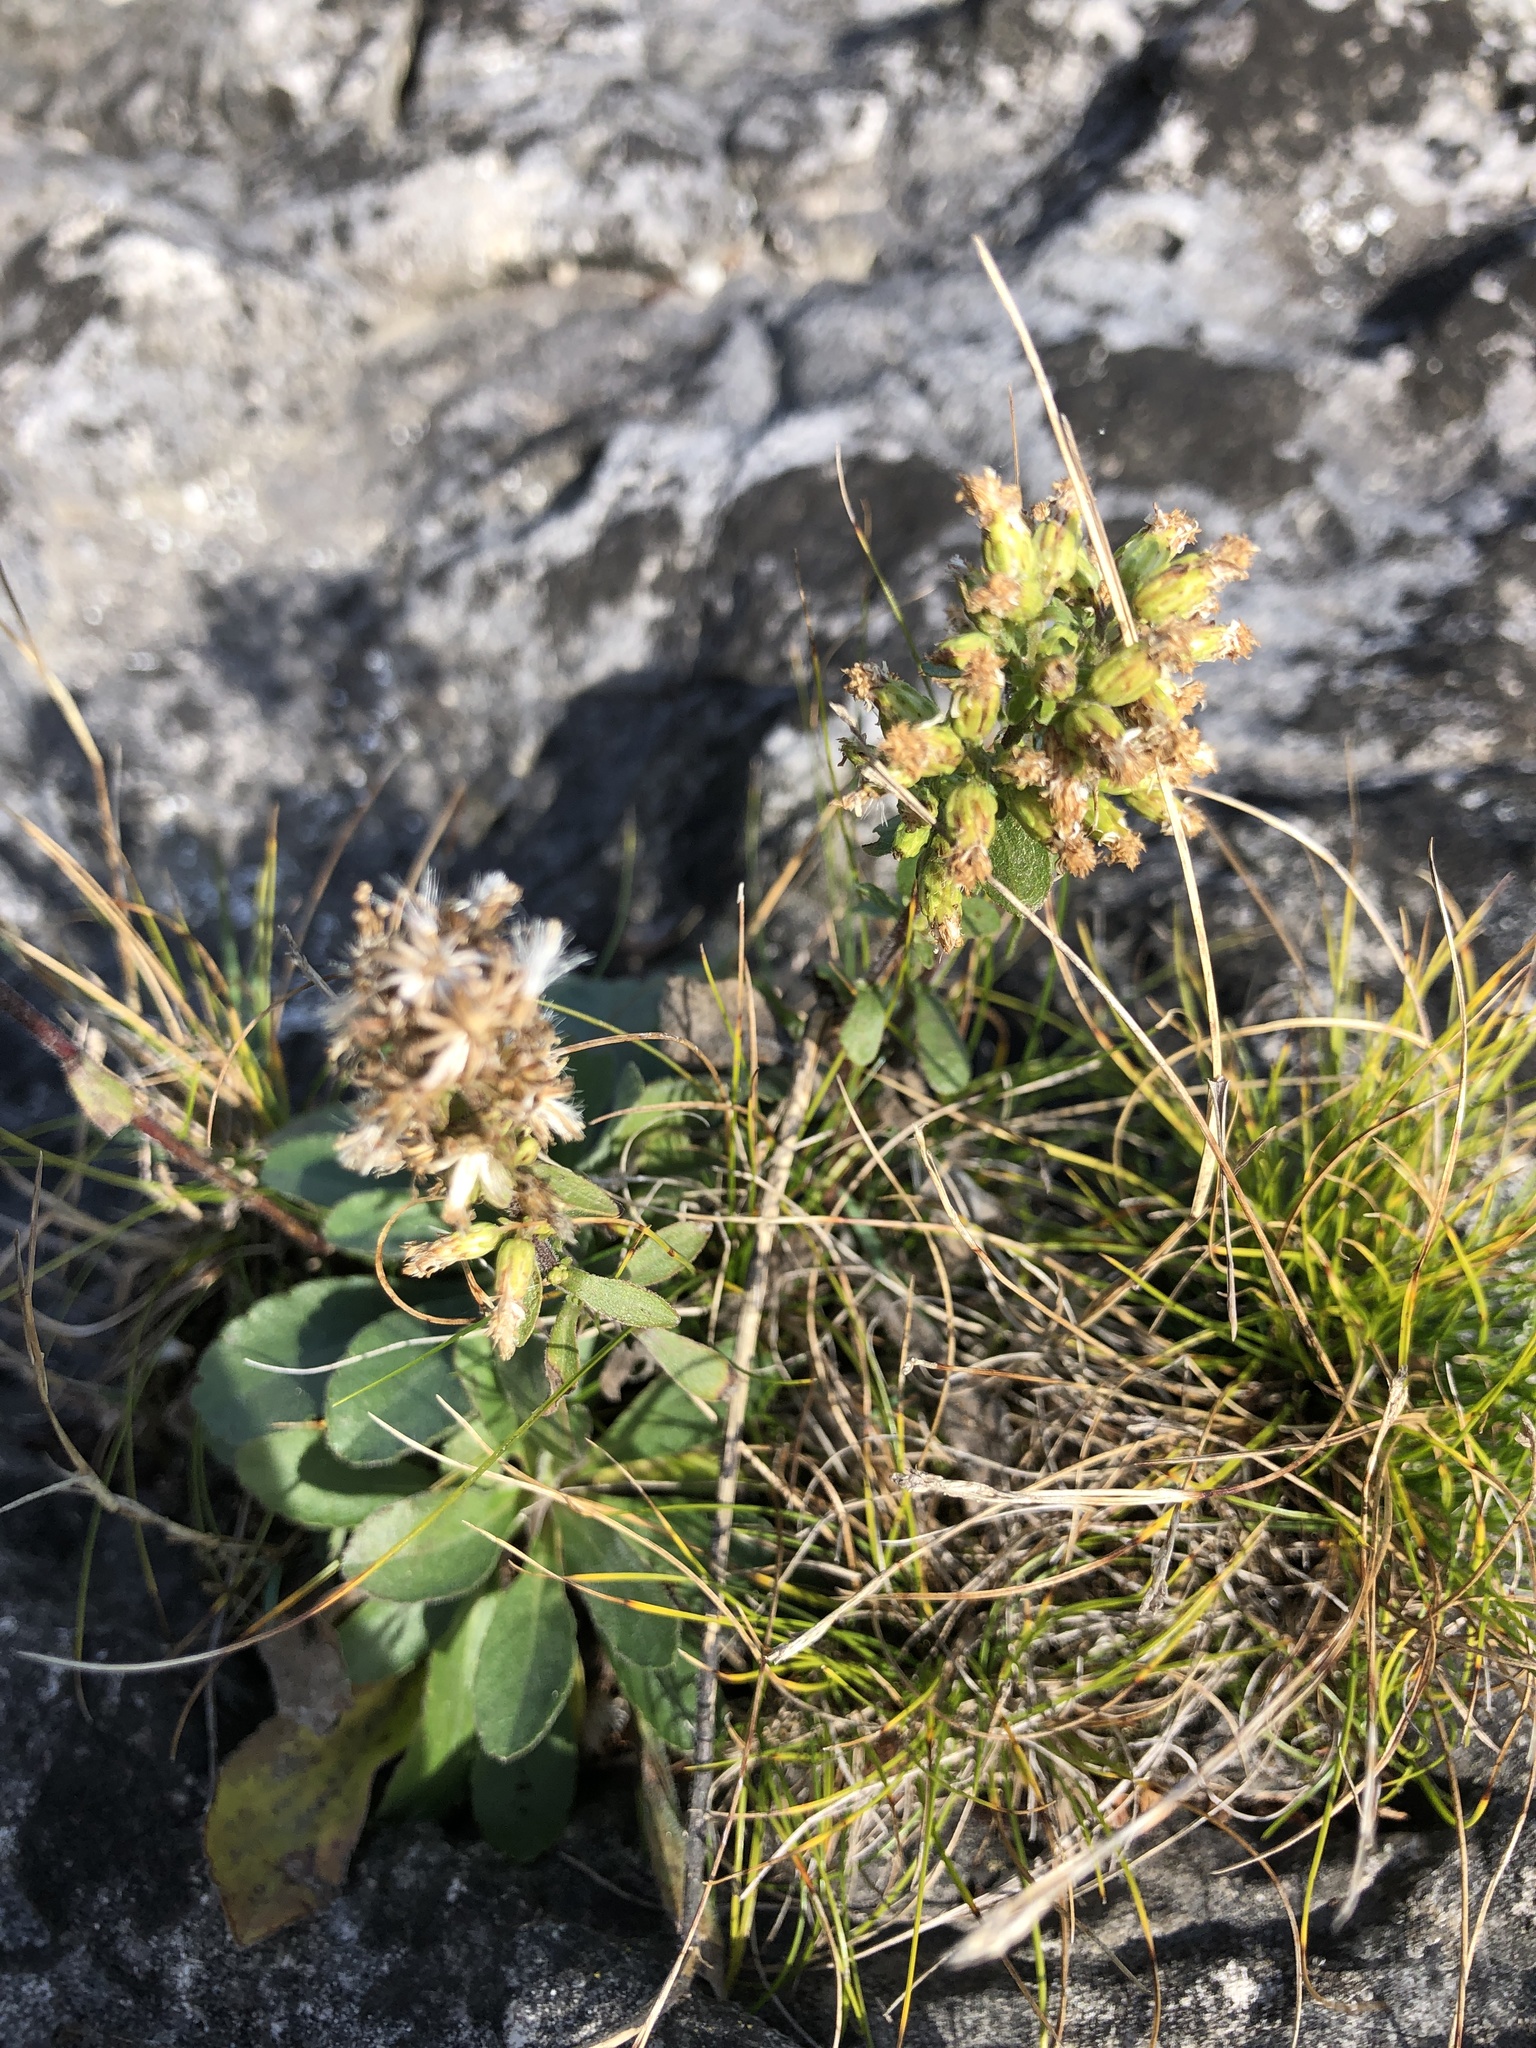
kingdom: Plantae
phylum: Tracheophyta
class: Magnoliopsida
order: Asterales
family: Asteraceae
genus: Solidago
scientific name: Solidago hispida
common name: Hairy goldenrod
